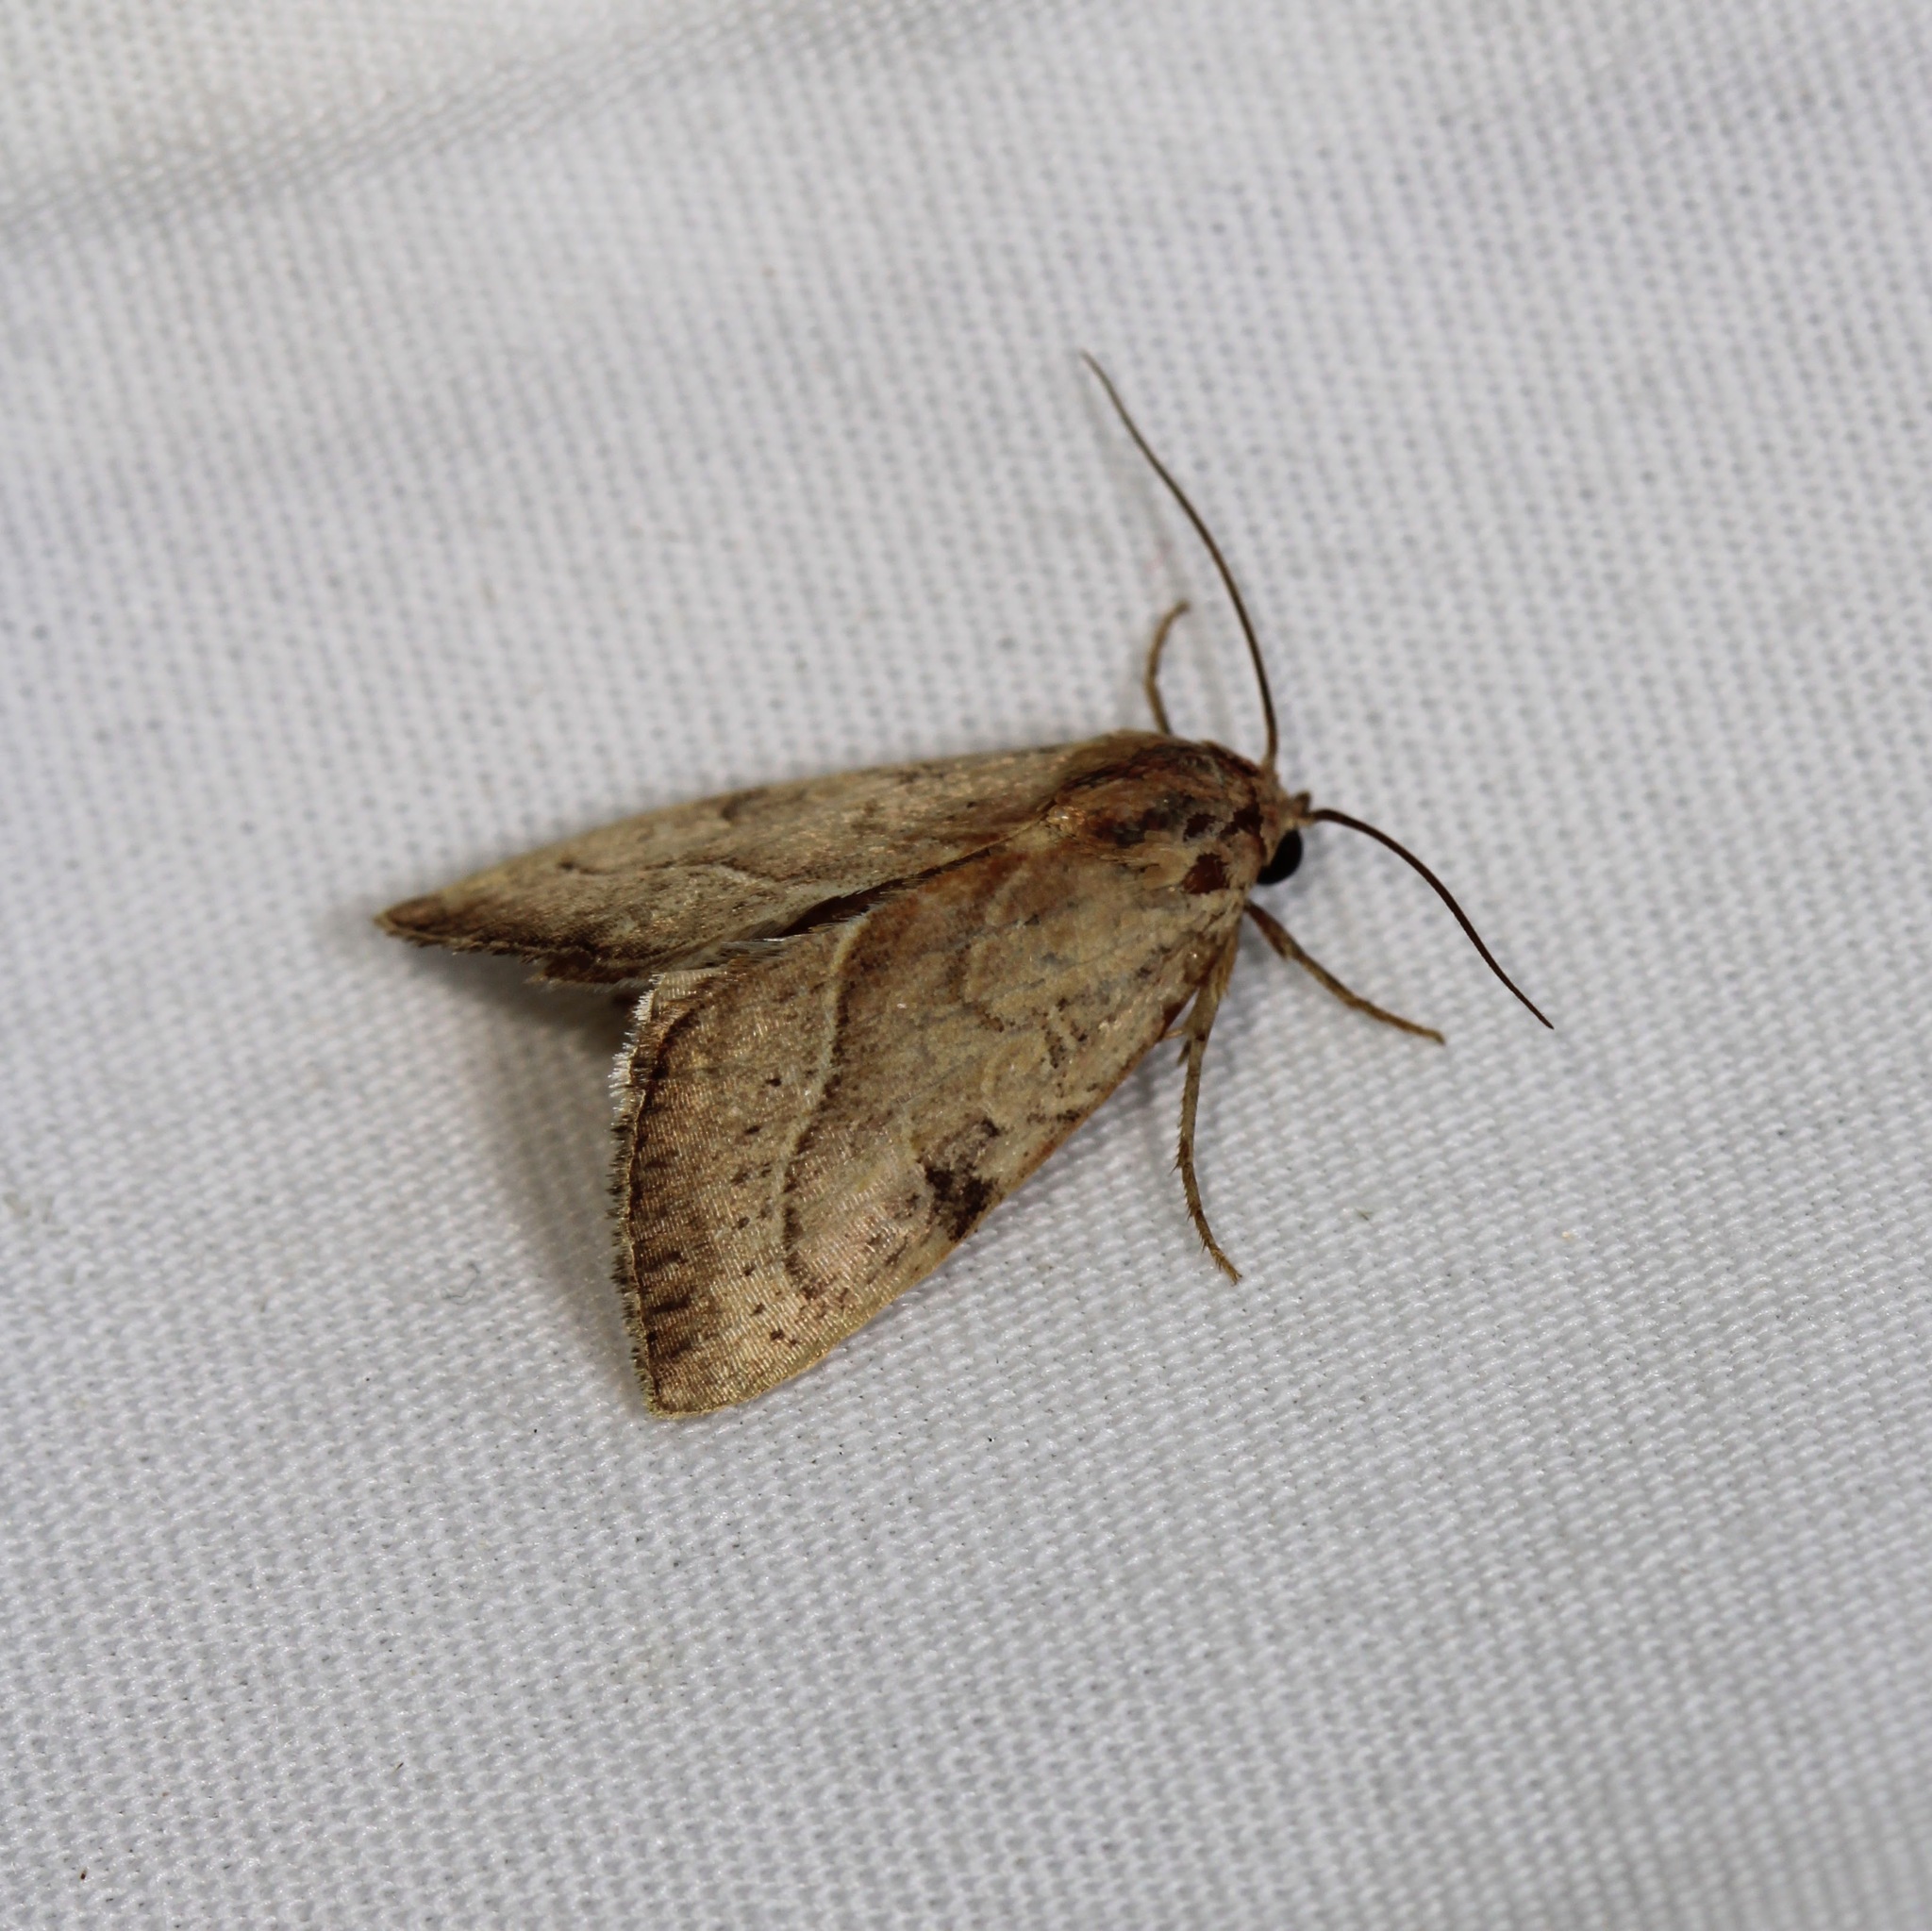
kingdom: Animalia
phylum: Arthropoda
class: Insecta
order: Lepidoptera
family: Noctuidae
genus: Galgula
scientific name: Galgula partita
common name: Wedgeling
